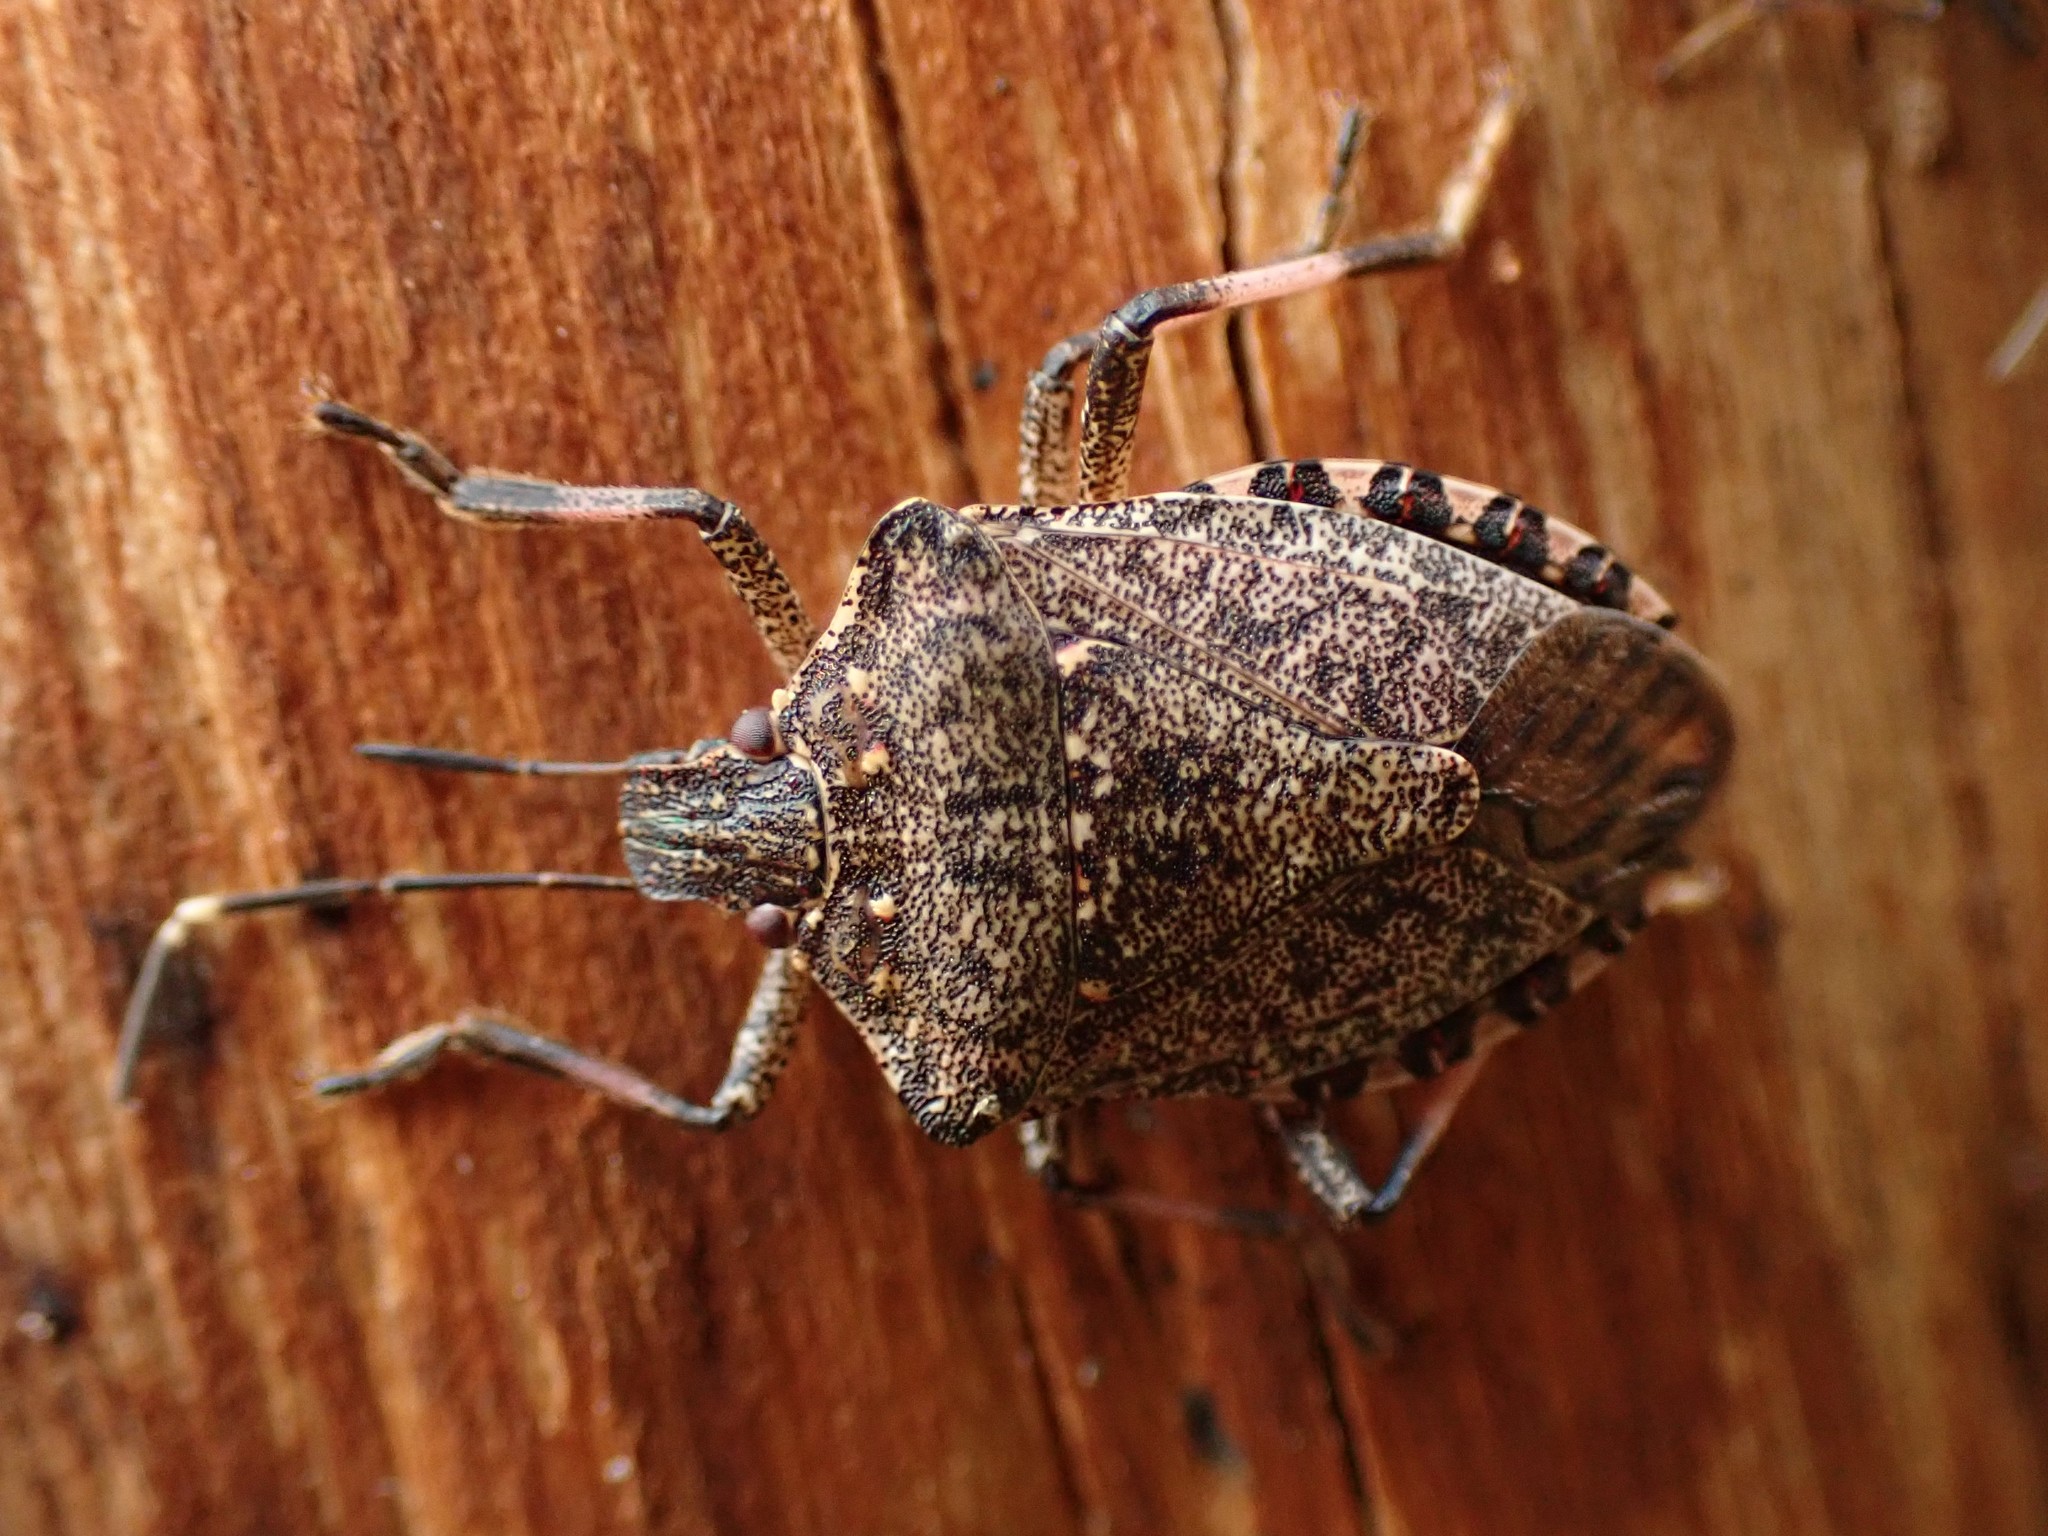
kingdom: Animalia
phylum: Arthropoda
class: Insecta
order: Hemiptera
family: Pentatomidae
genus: Halyomorpha
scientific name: Halyomorpha halys
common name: Brown marmorated stink bug
